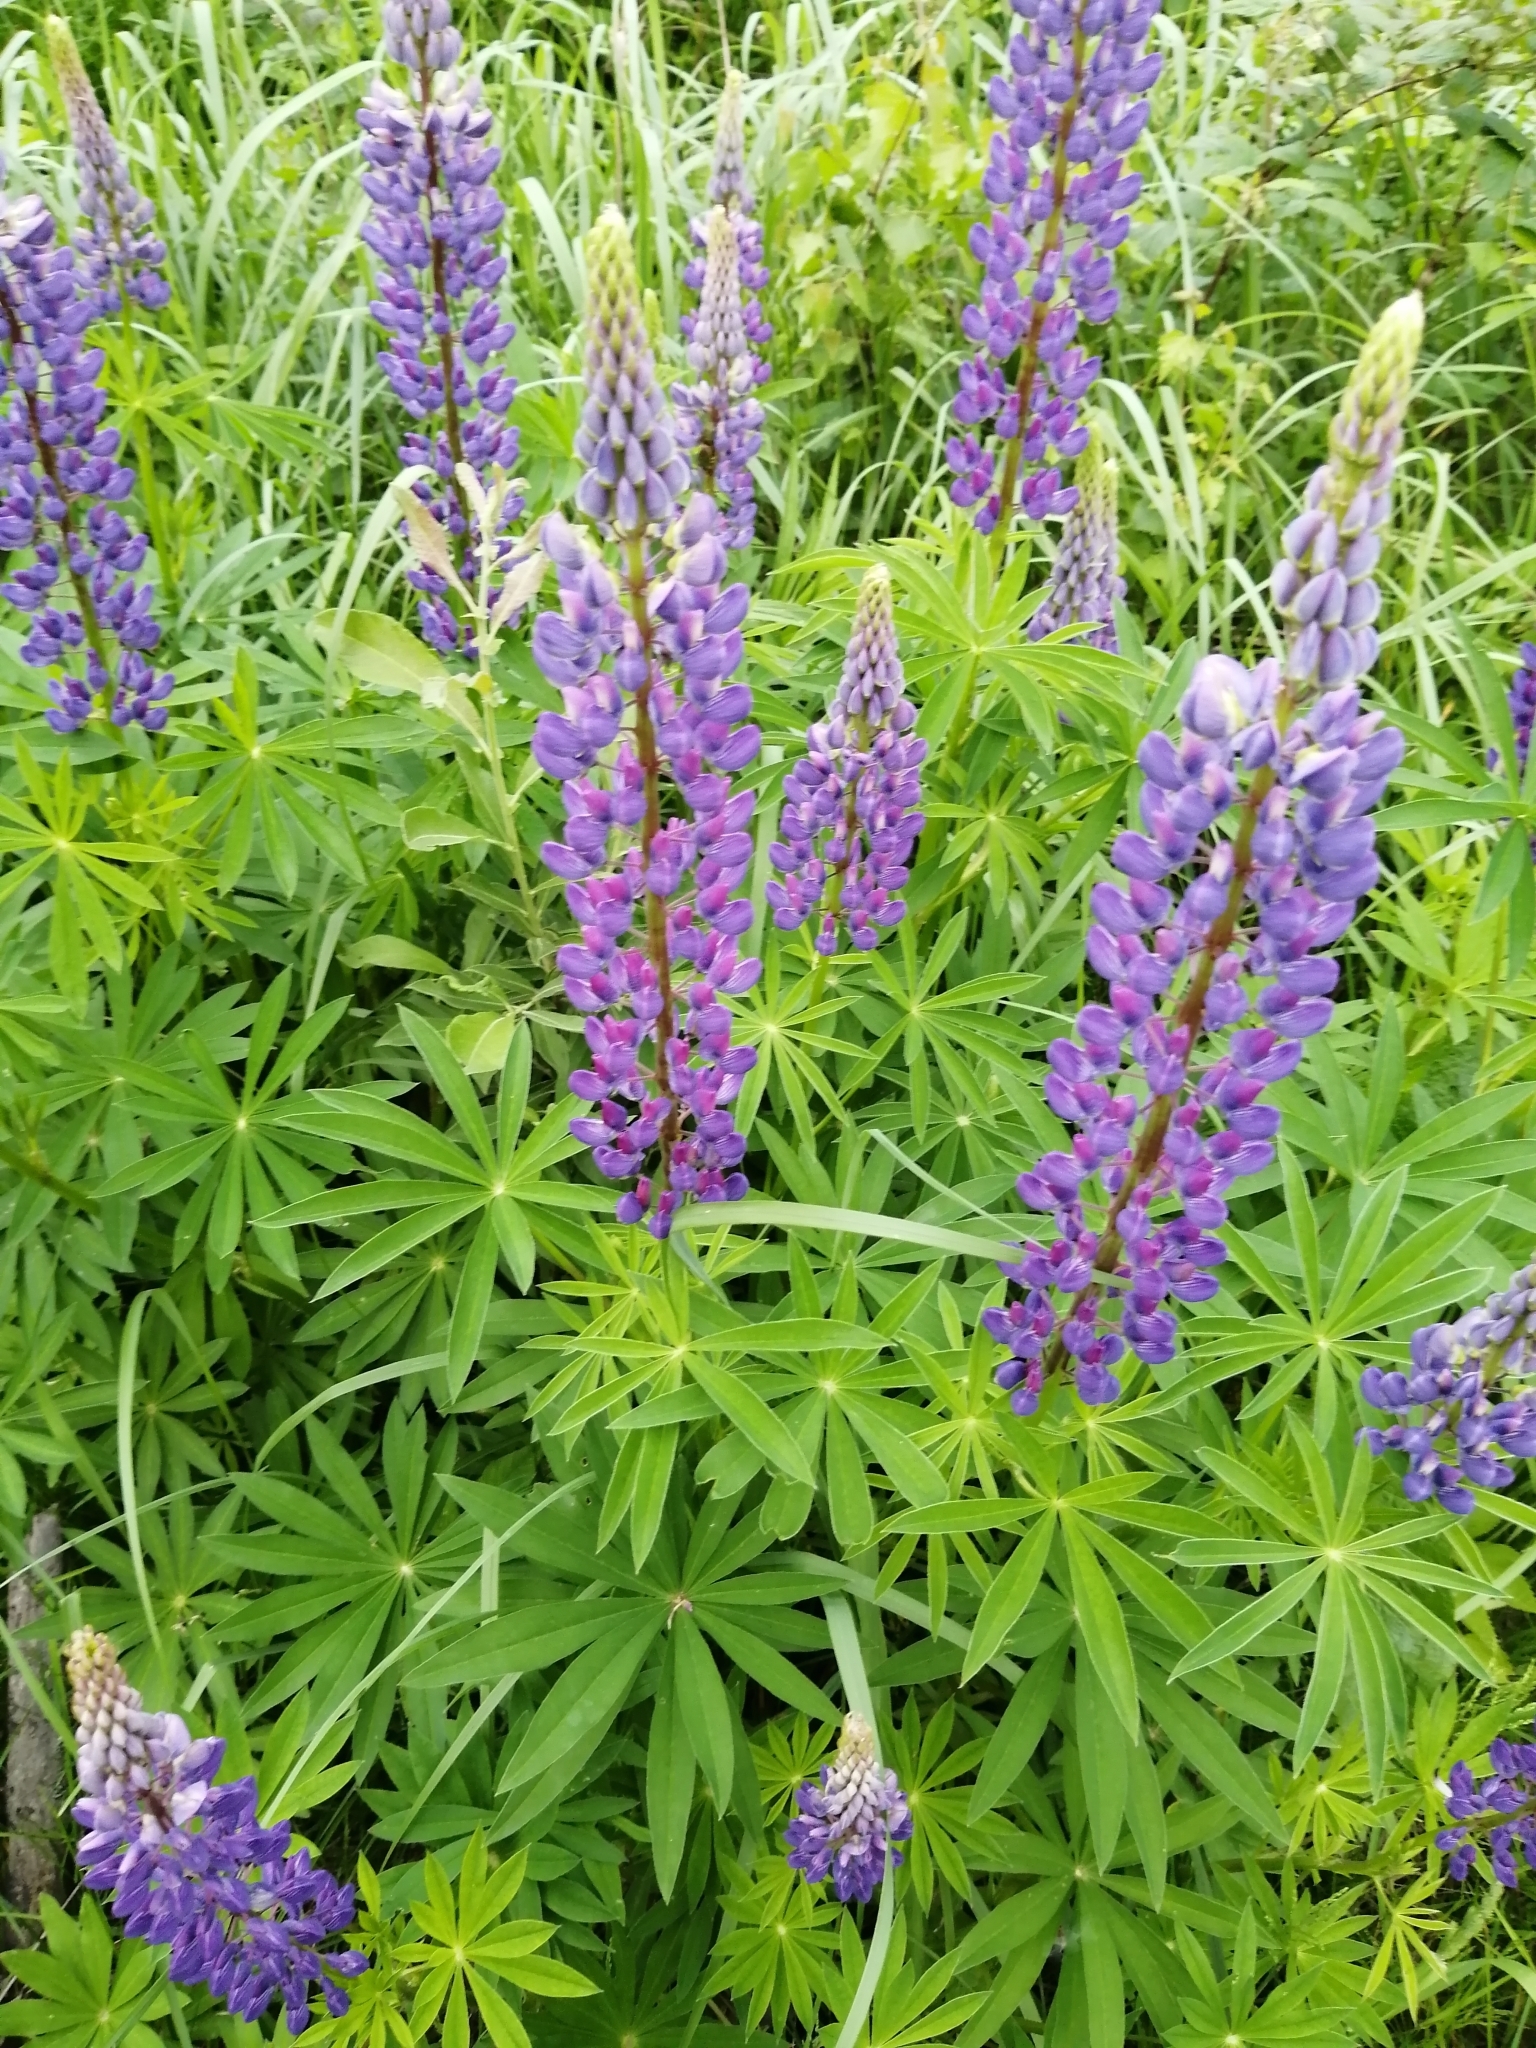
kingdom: Plantae
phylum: Tracheophyta
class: Magnoliopsida
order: Fabales
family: Fabaceae
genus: Lupinus
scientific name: Lupinus polyphyllus
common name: Garden lupin
